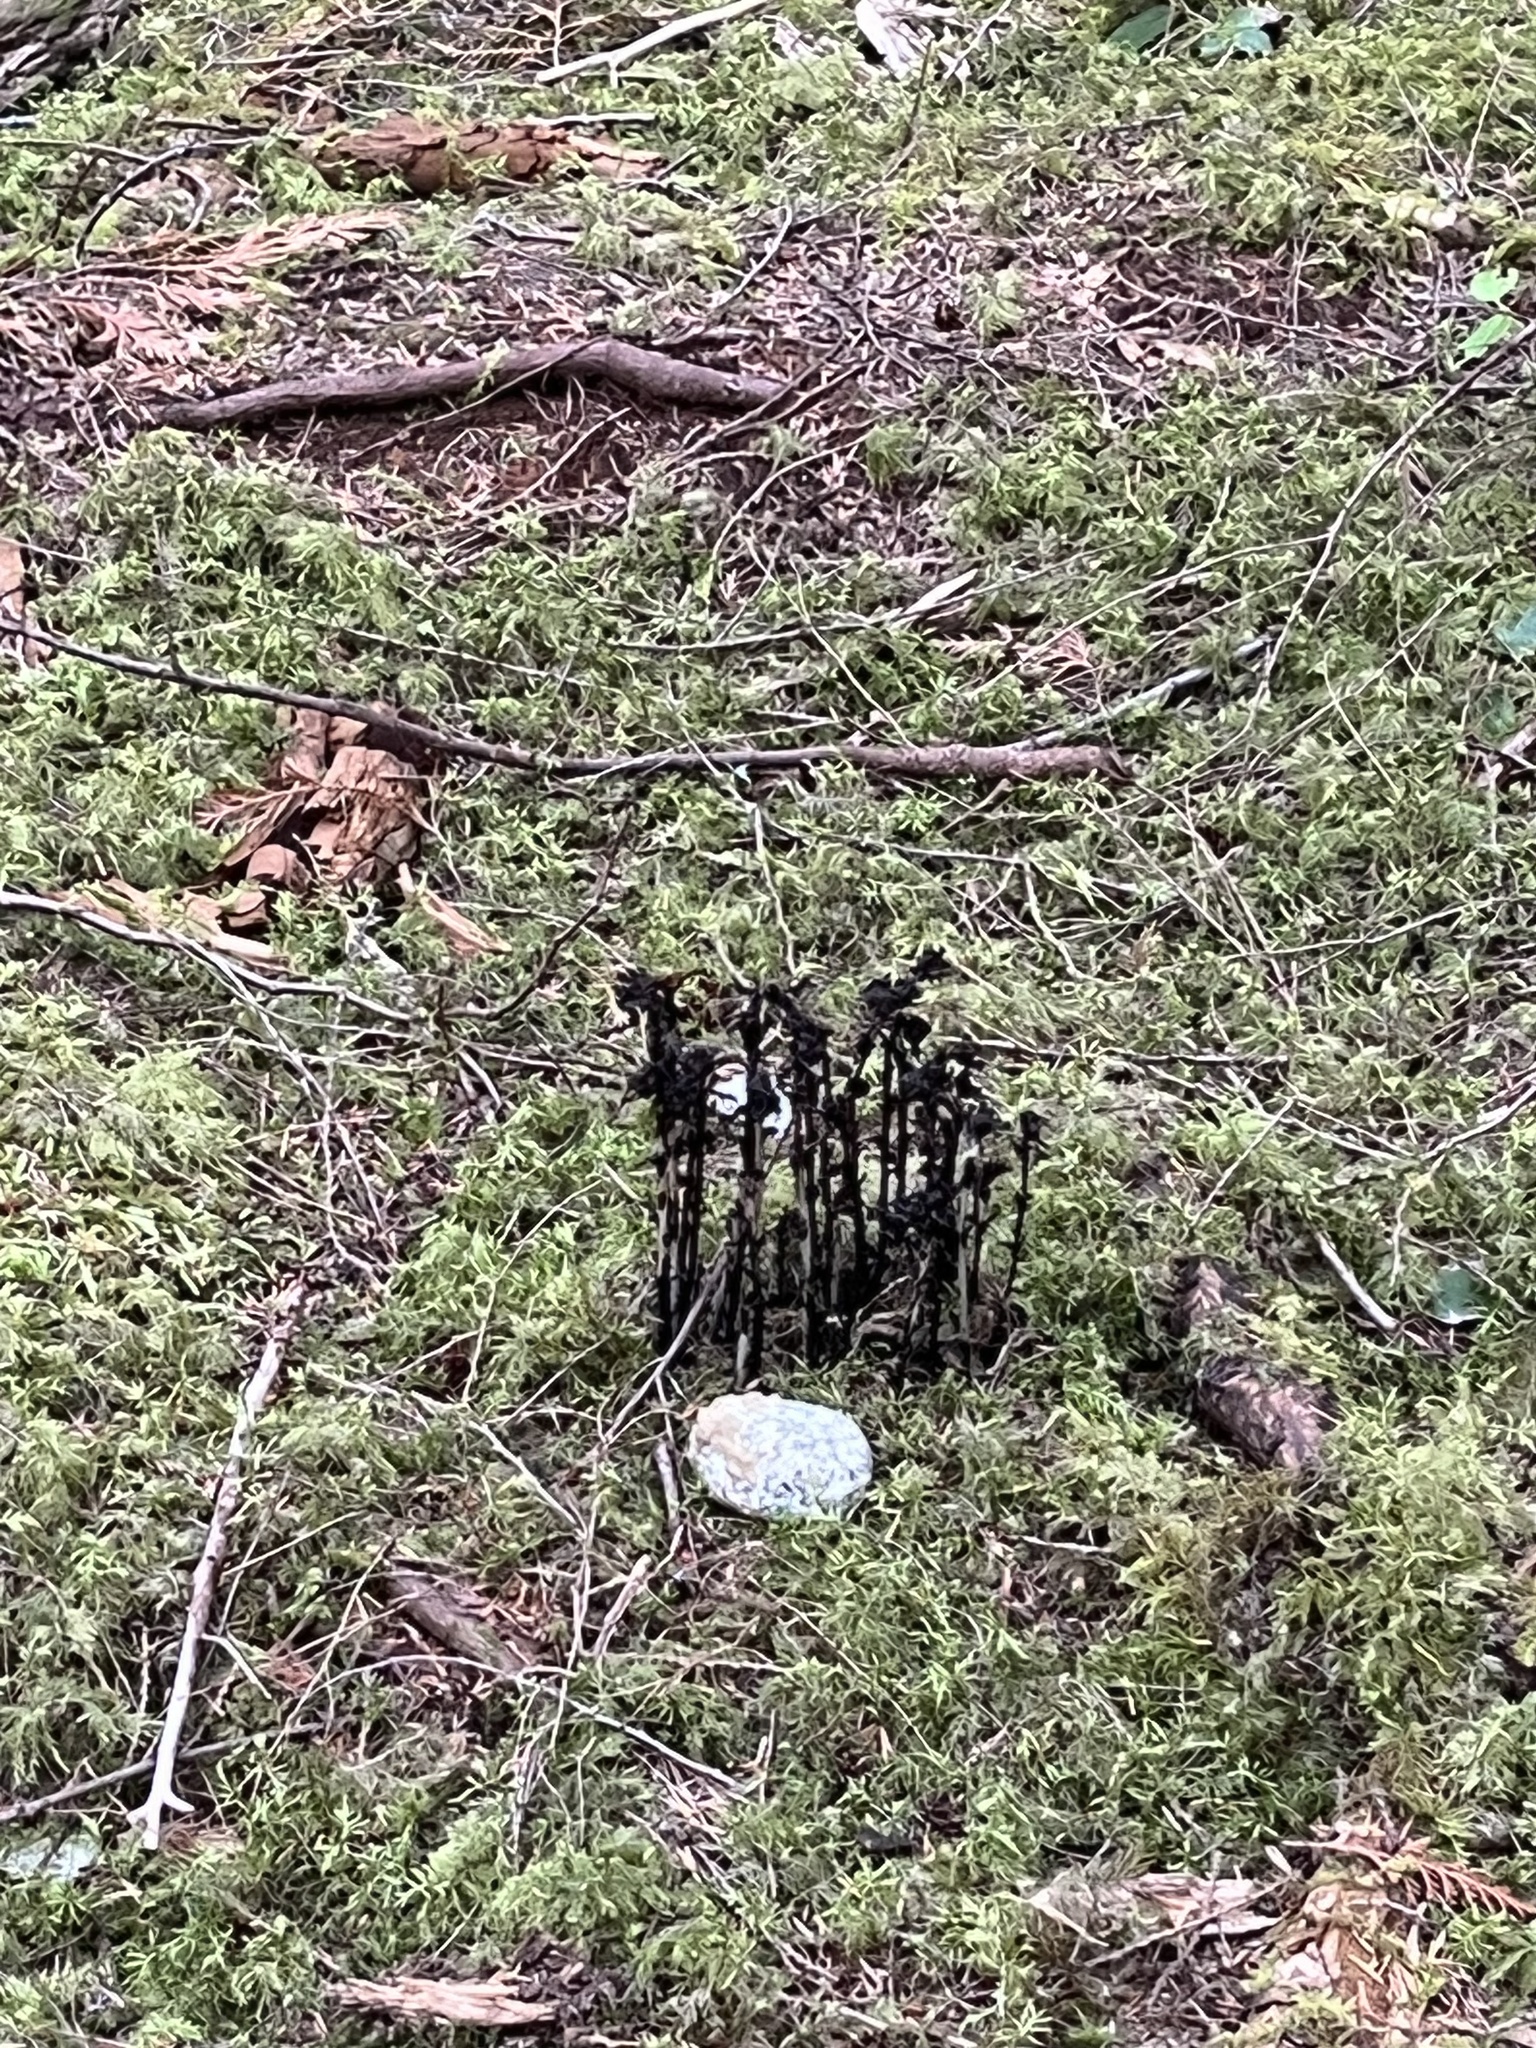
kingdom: Plantae
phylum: Tracheophyta
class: Magnoliopsida
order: Ericales
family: Ericaceae
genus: Monotropa
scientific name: Monotropa uniflora
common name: Convulsion root
